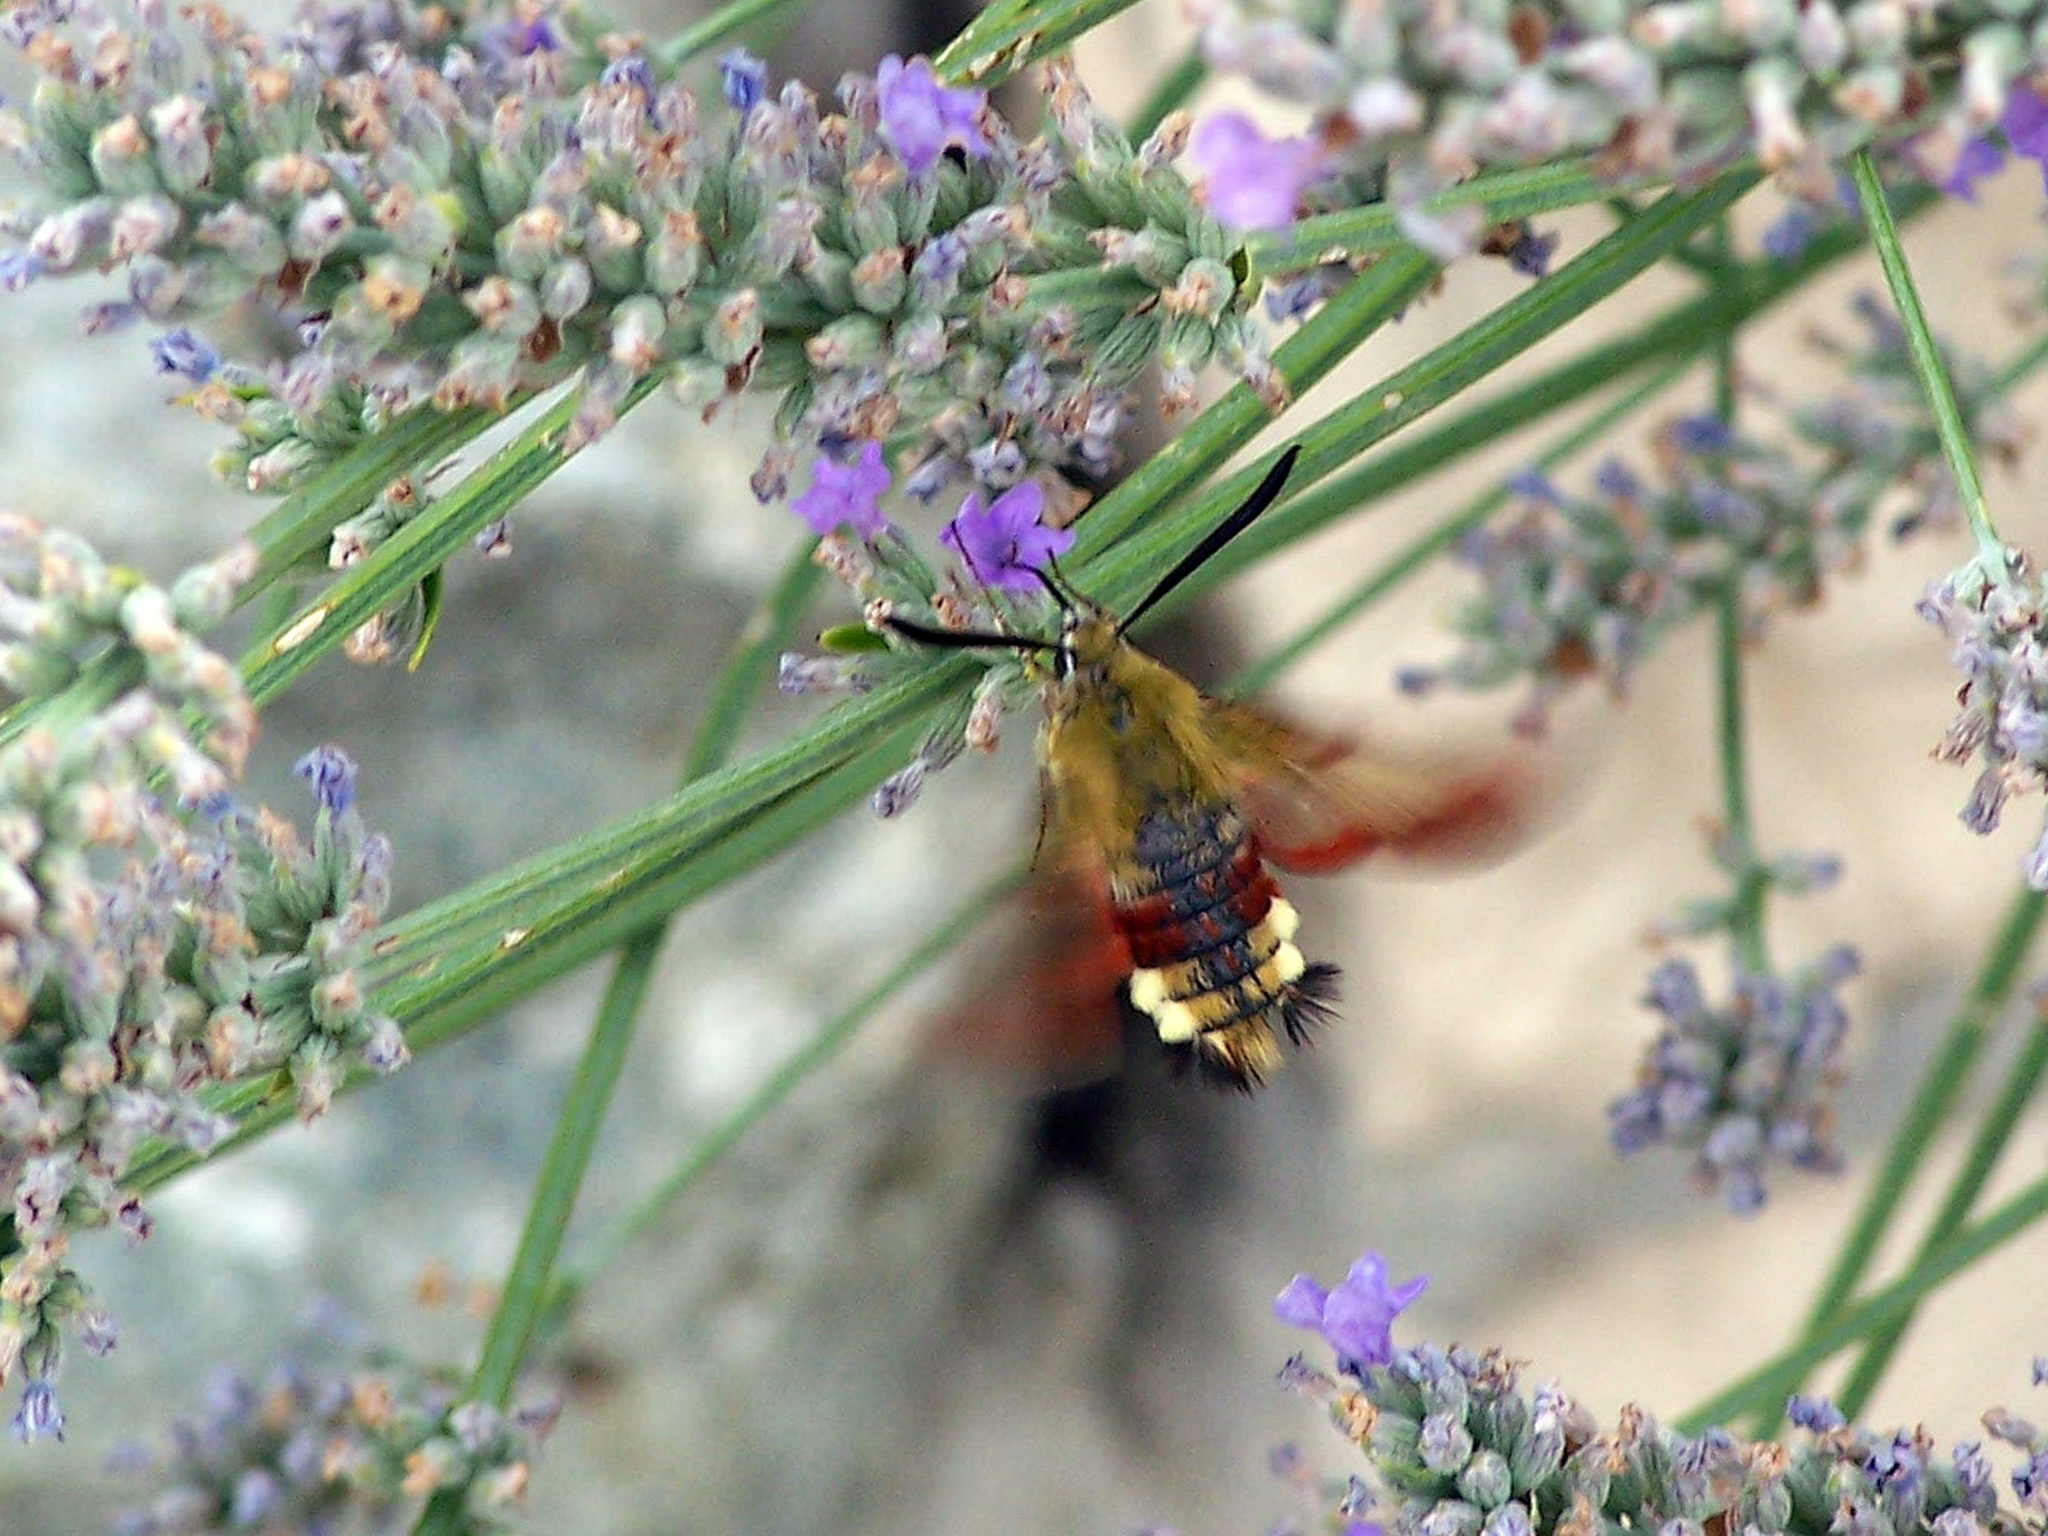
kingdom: Animalia
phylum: Arthropoda
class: Insecta
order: Lepidoptera
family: Sphingidae
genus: Hemaris
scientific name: Hemaris fuciformis
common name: Broad-bordered bee hawk-moth
